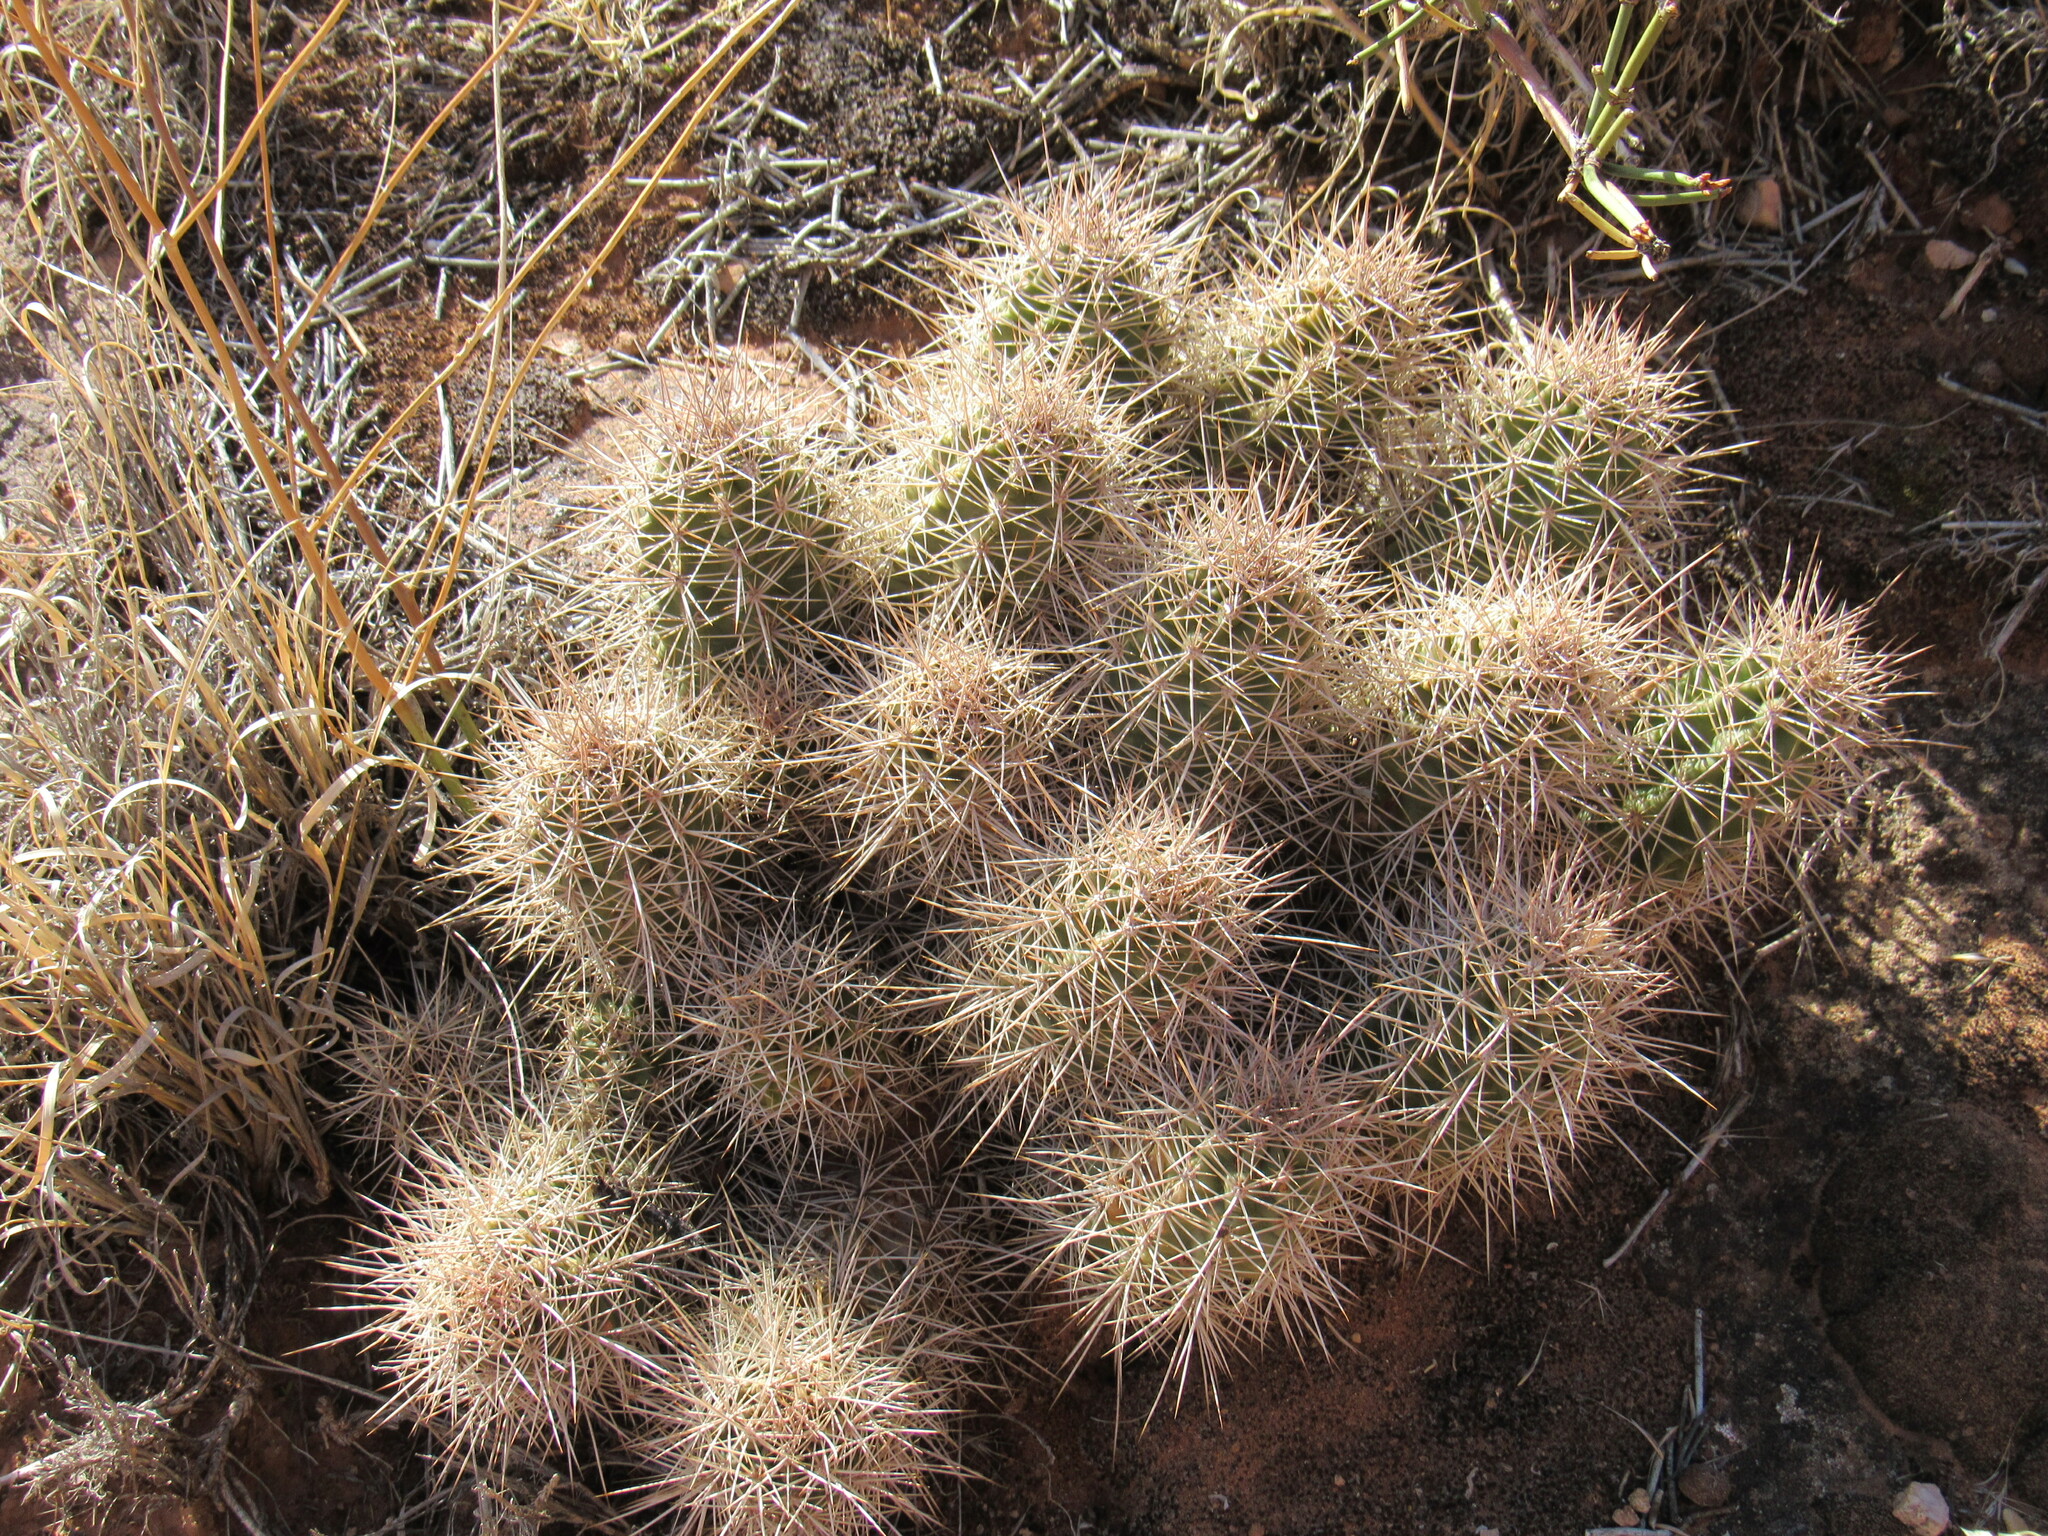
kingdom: Plantae
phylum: Tracheophyta
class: Magnoliopsida
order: Caryophyllales
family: Cactaceae
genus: Echinocereus
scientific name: Echinocereus triglochidiatus
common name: Claretcup hedgehog
